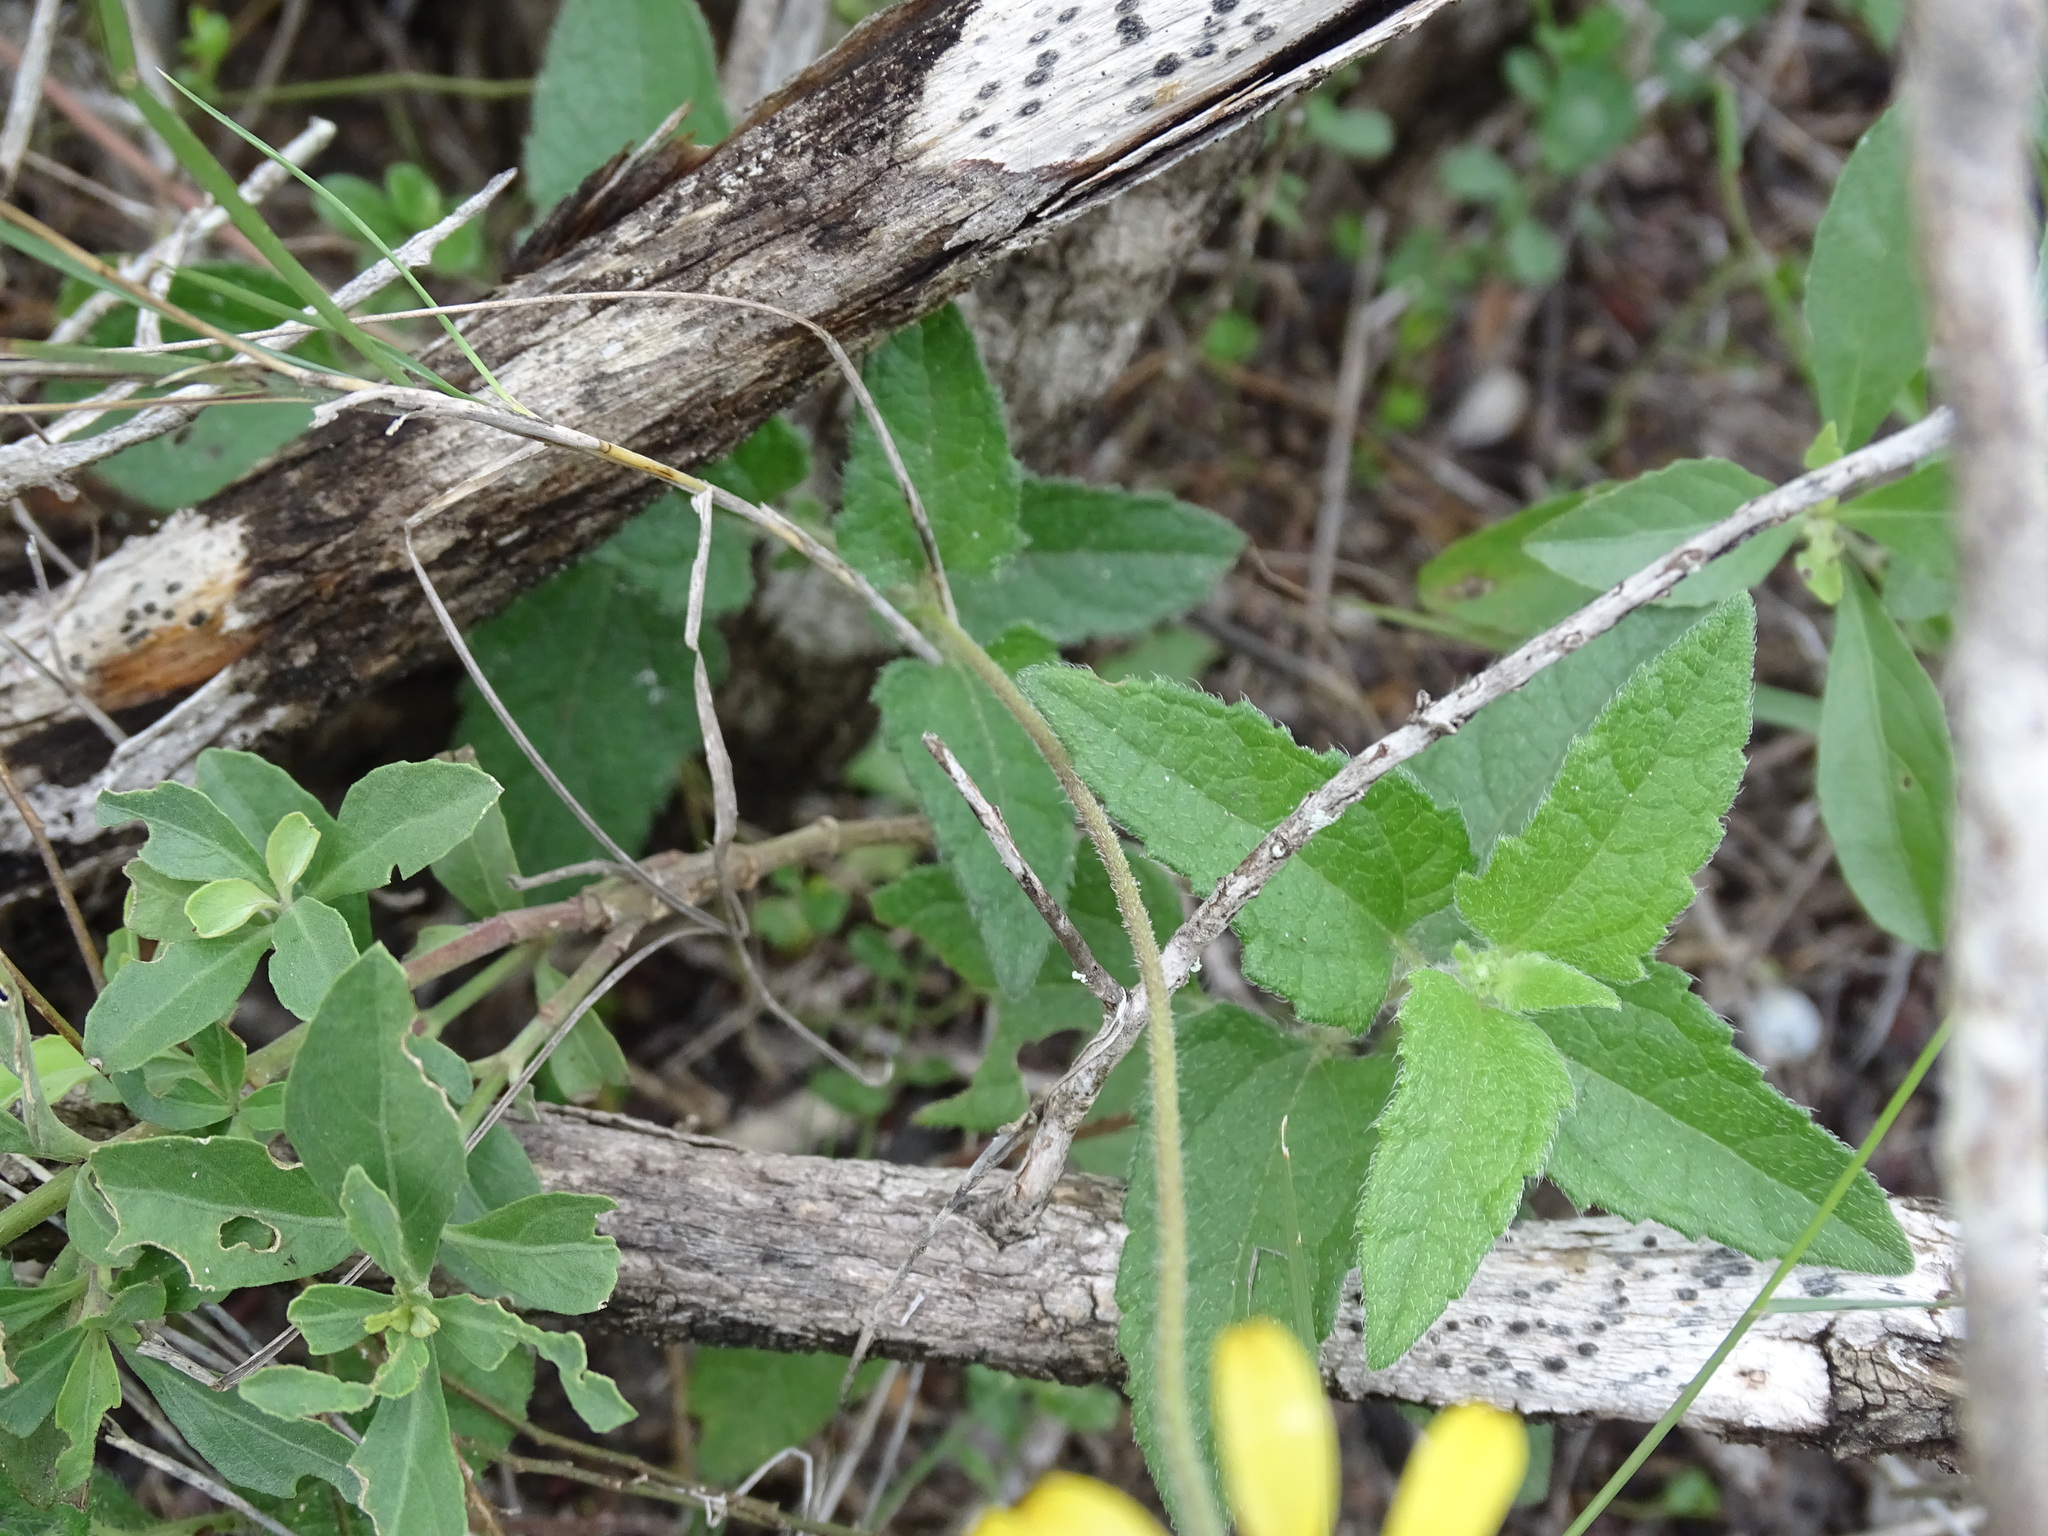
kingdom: Plantae
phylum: Tracheophyta
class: Magnoliopsida
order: Asterales
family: Asteraceae
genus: Simsia
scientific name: Simsia calva
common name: Awnless bush-sunflower
